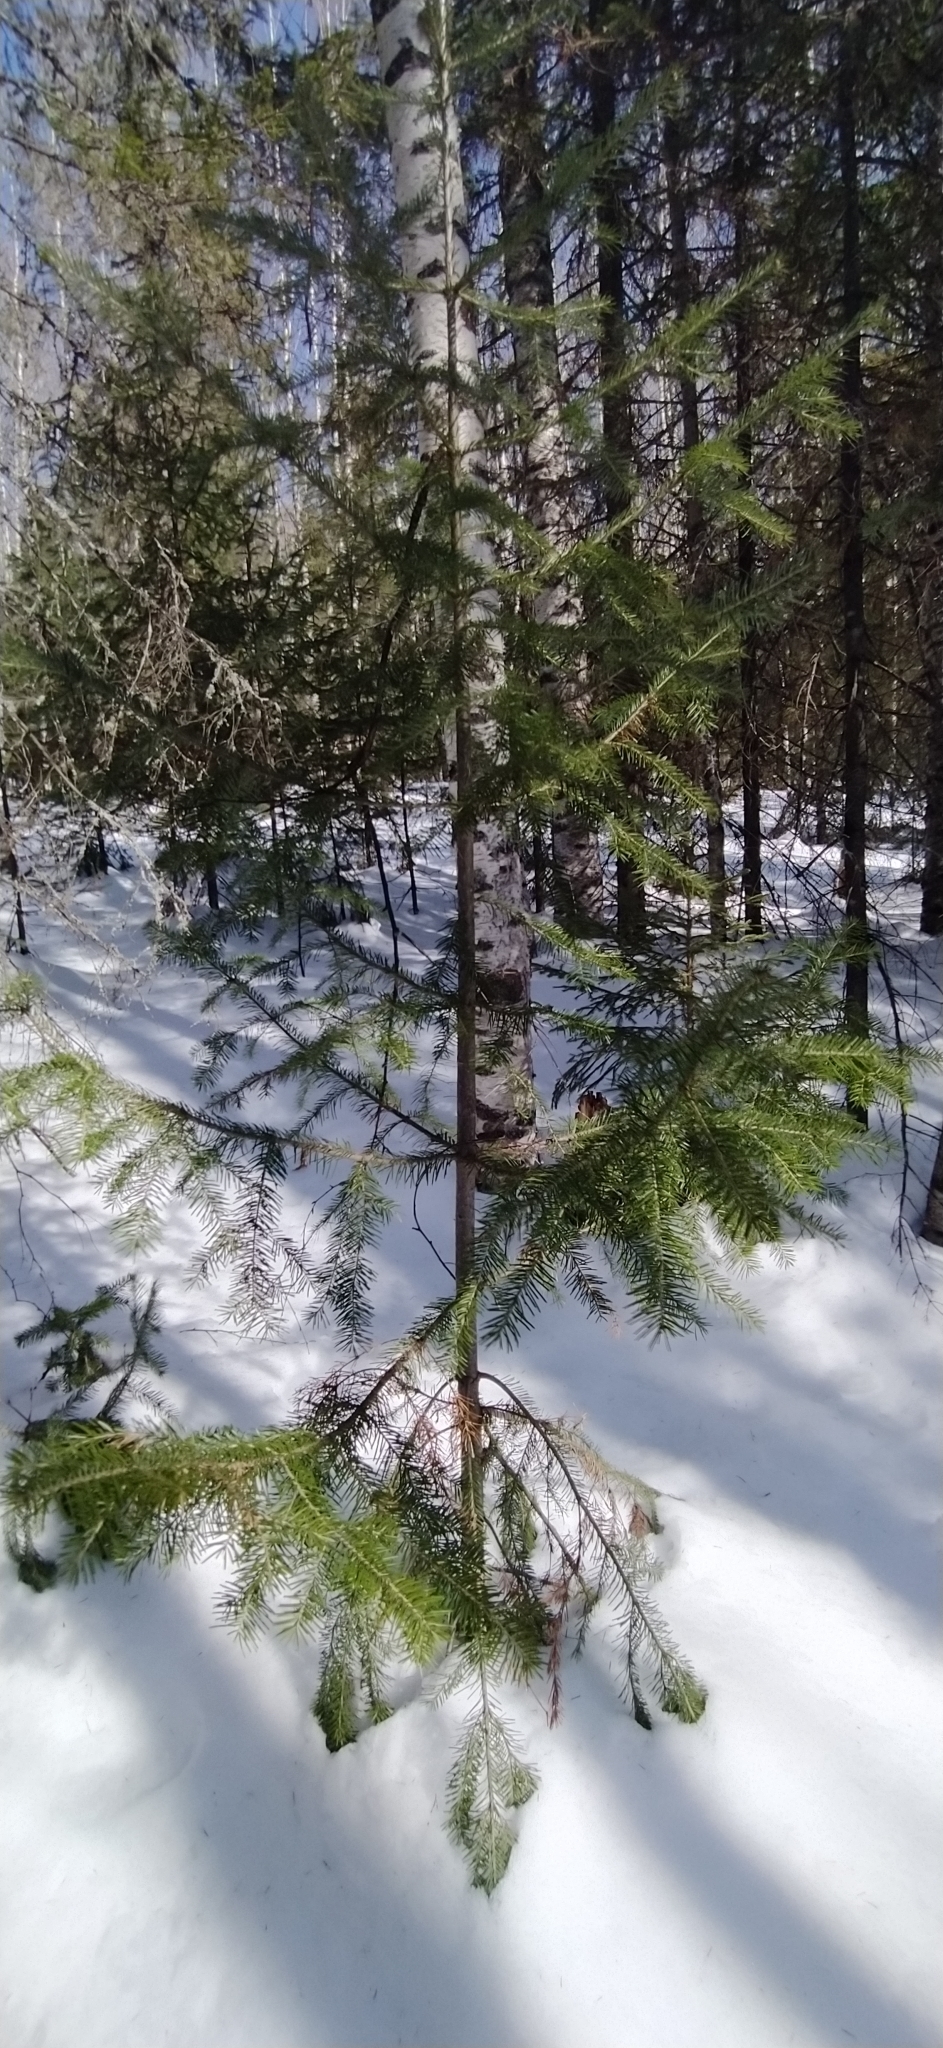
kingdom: Plantae
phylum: Tracheophyta
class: Pinopsida
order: Pinales
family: Pinaceae
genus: Abies
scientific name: Abies sibirica
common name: Siberian fir
